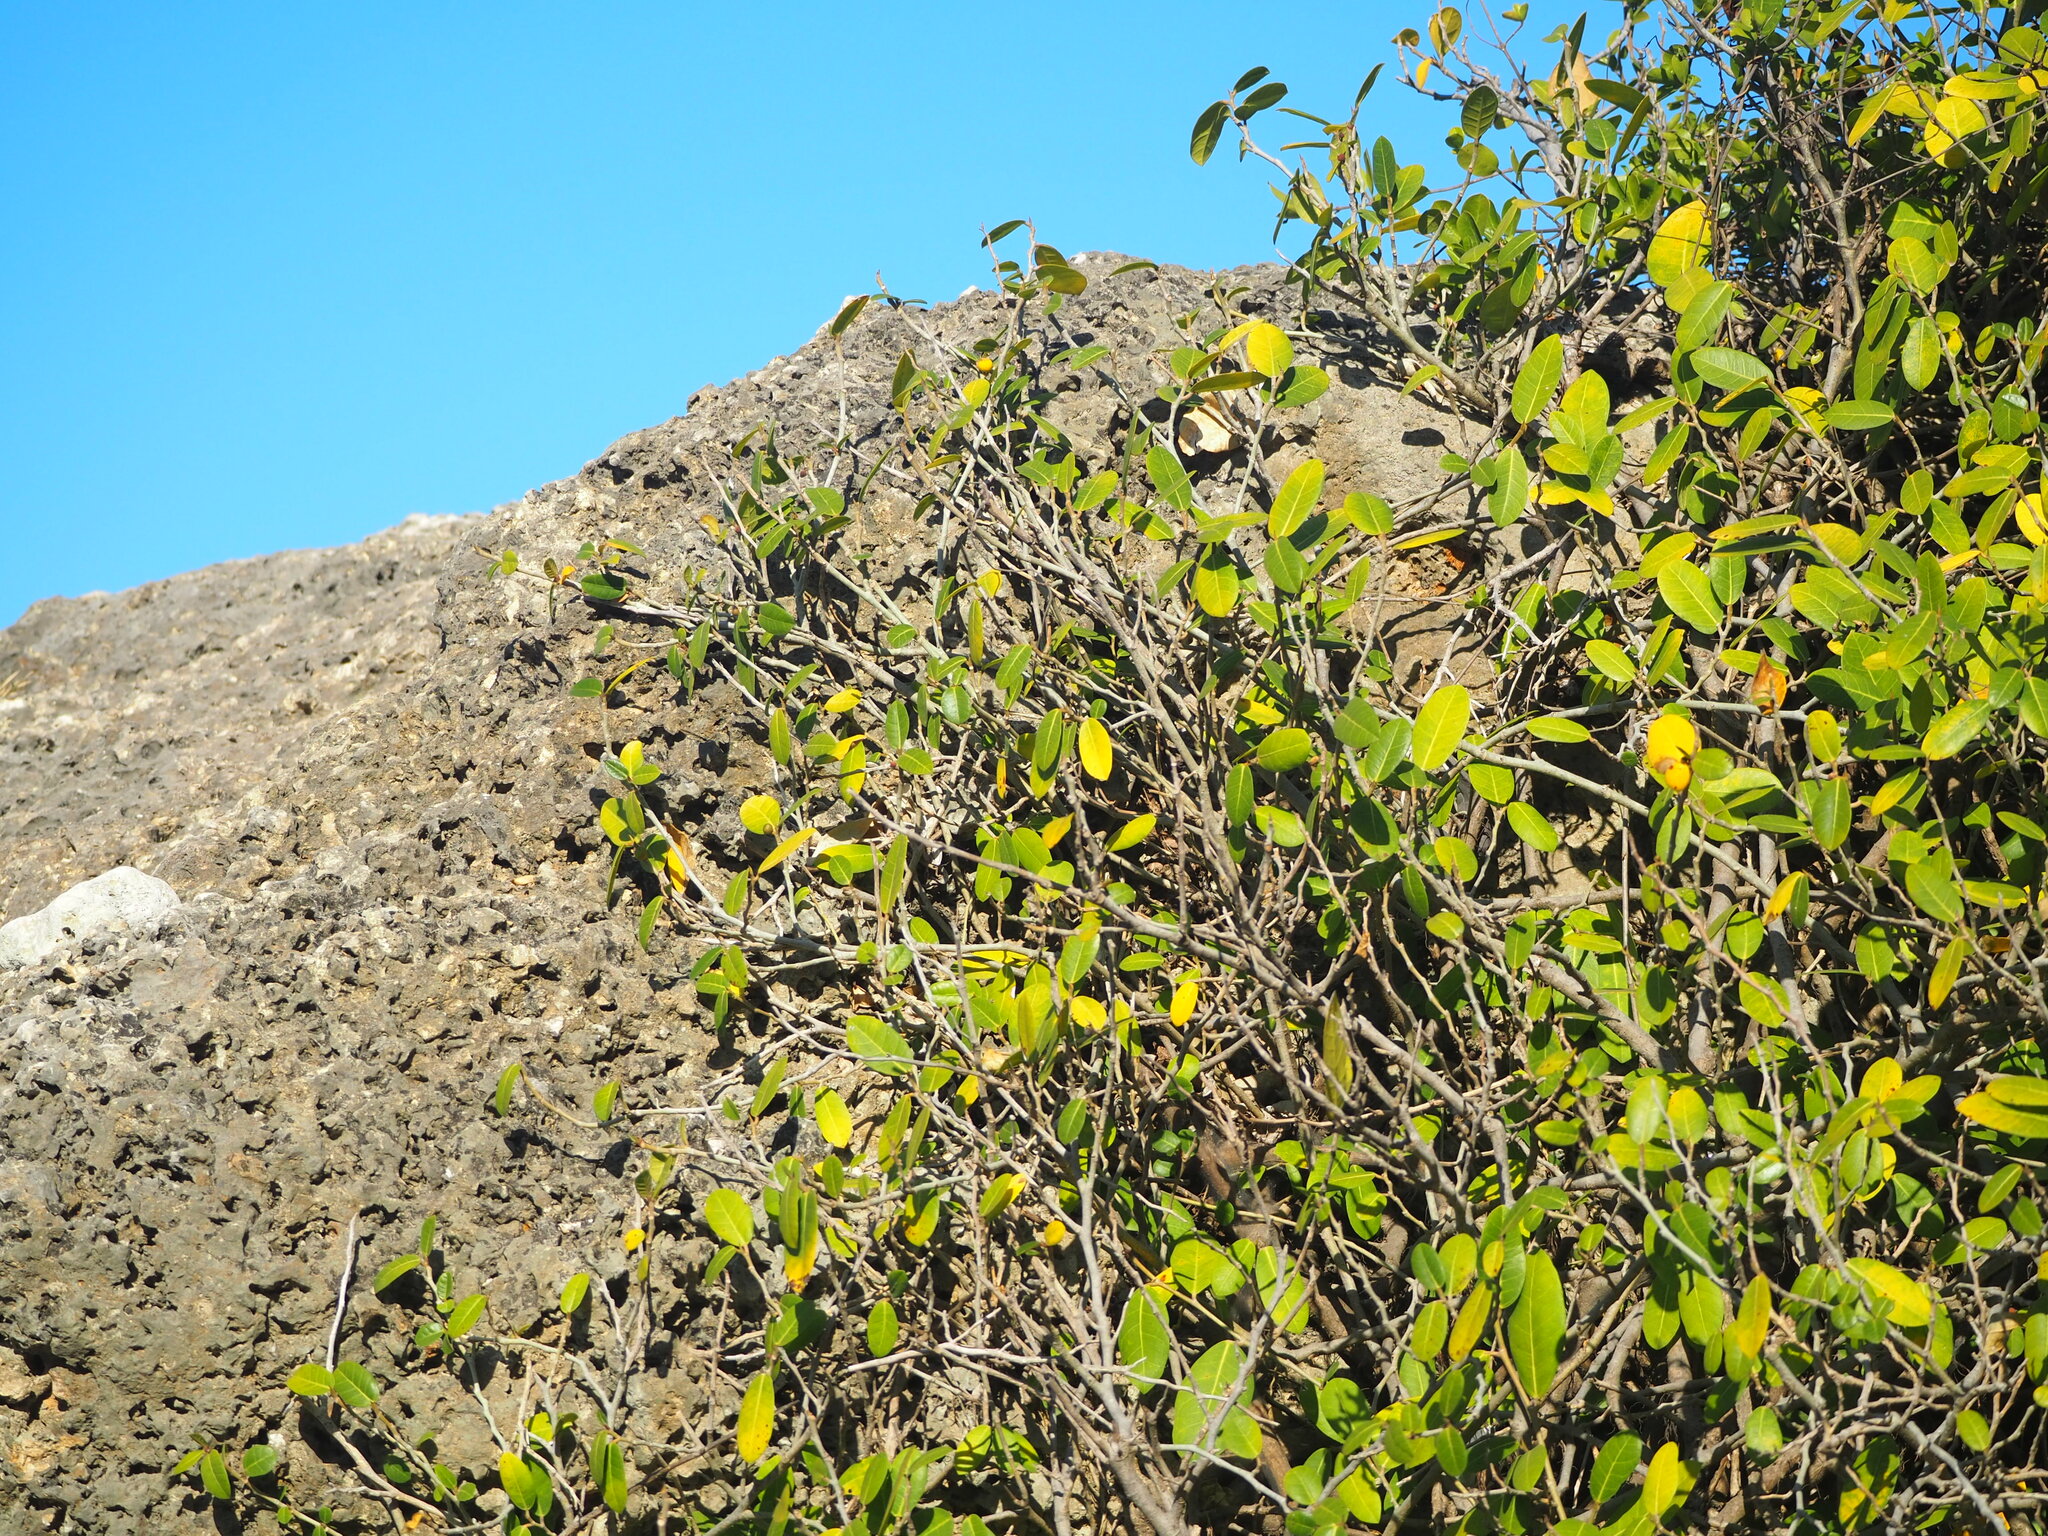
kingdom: Plantae
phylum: Tracheophyta
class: Magnoliopsida
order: Rosales
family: Moraceae
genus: Ficus
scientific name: Ficus tinctoria
